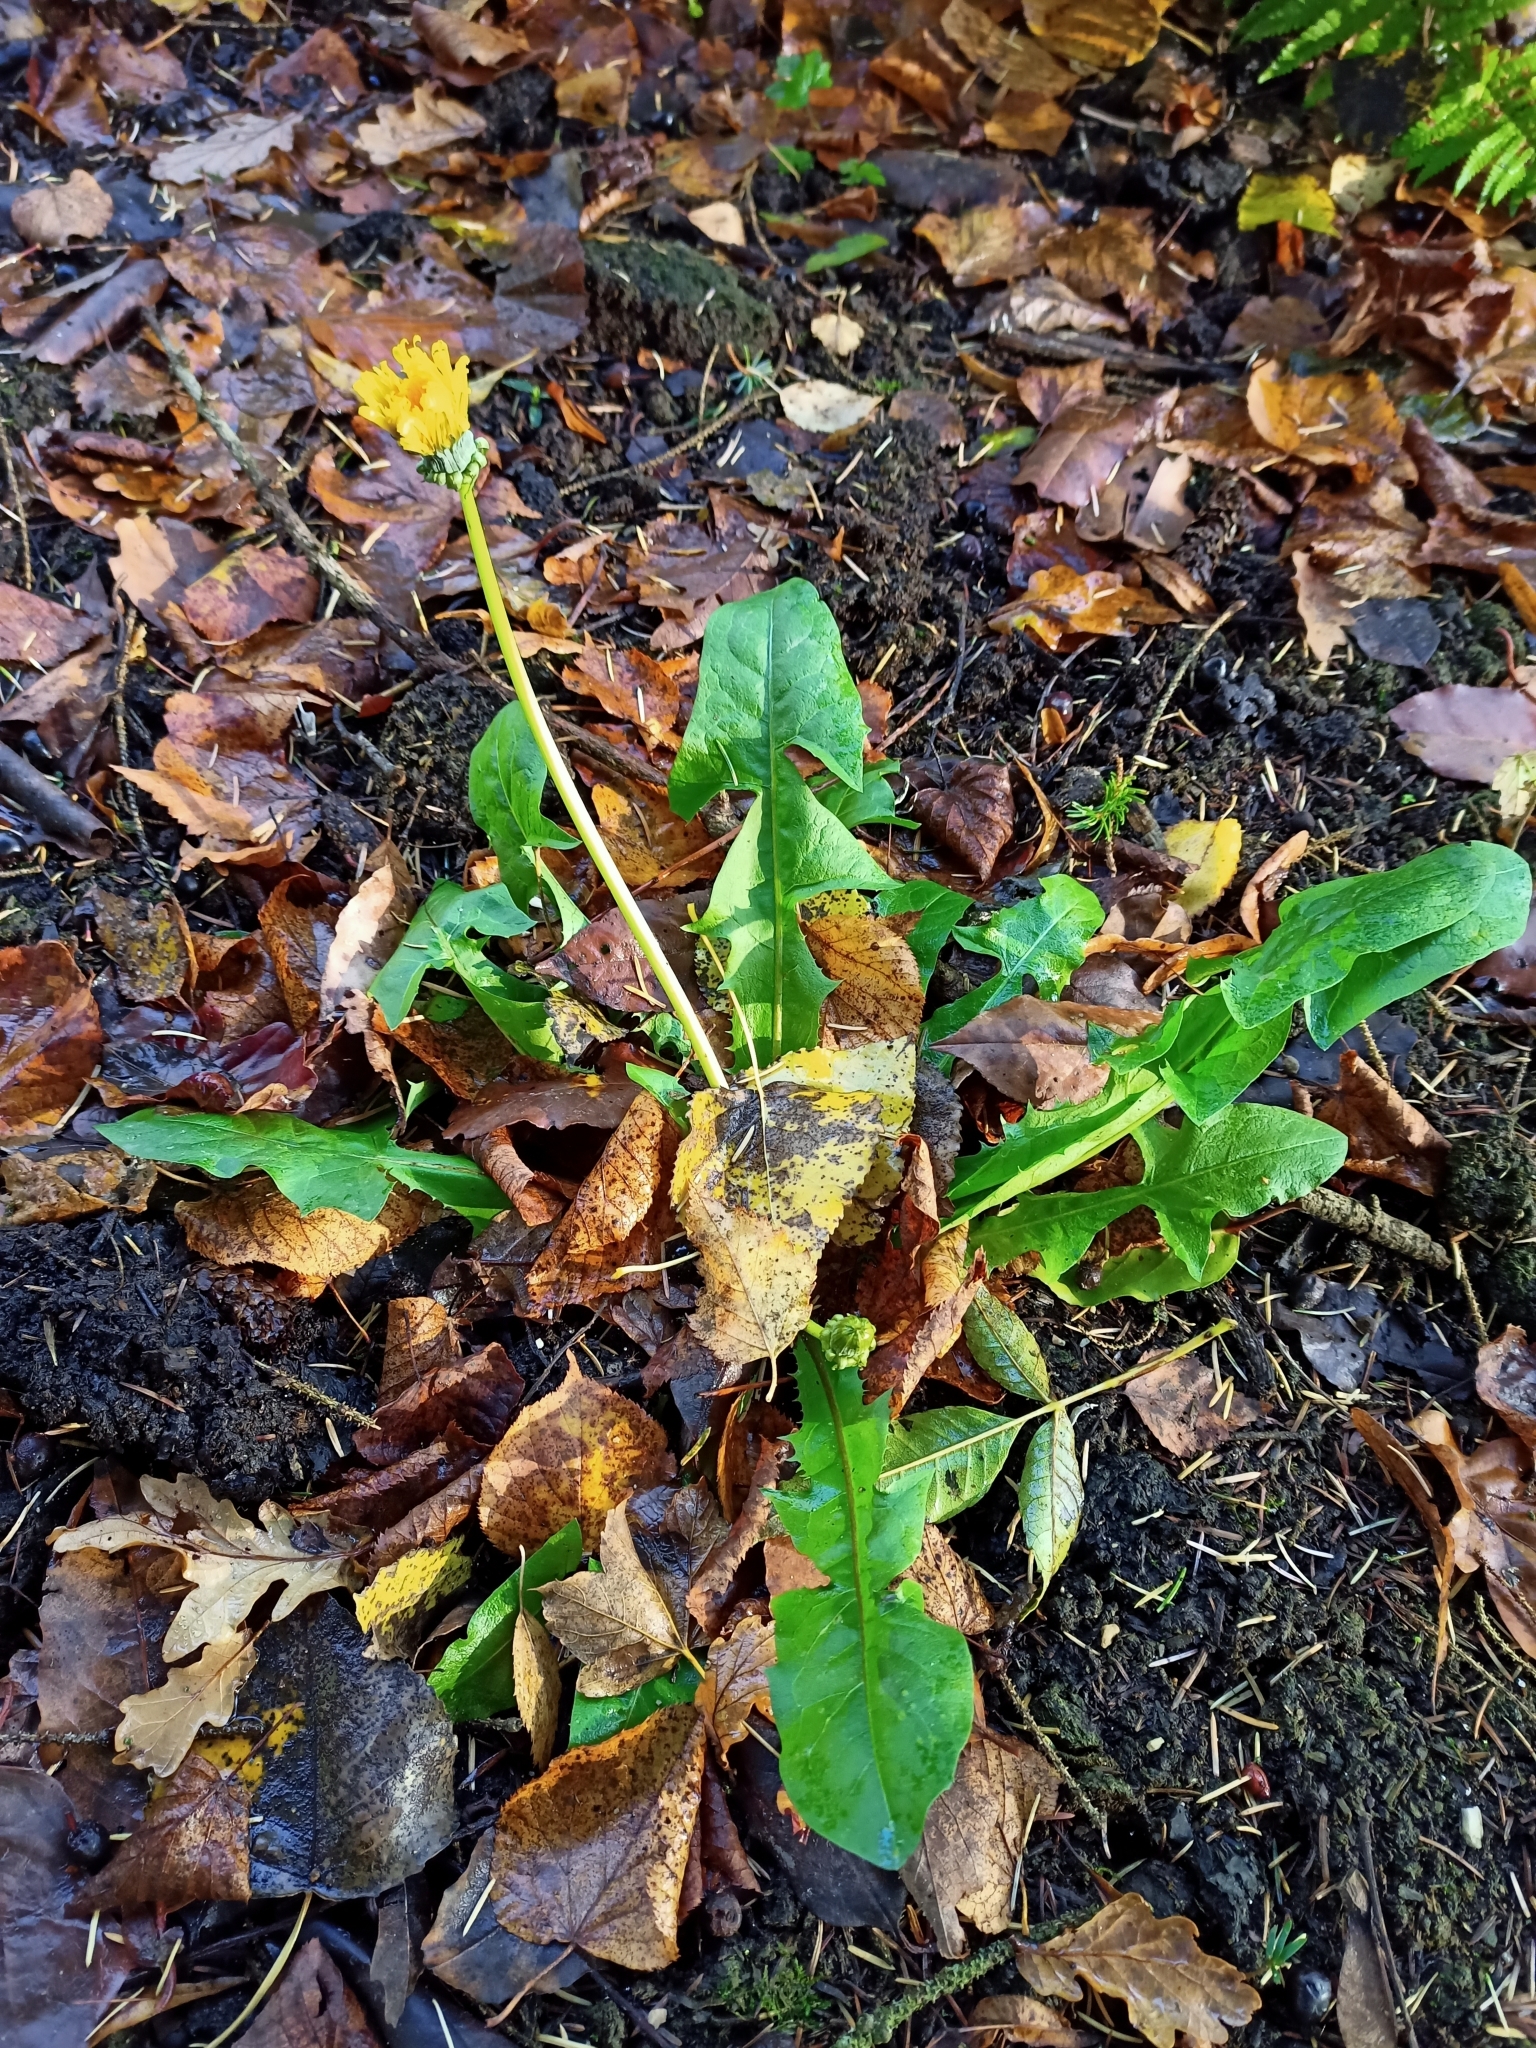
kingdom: Plantae
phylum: Tracheophyta
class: Magnoliopsida
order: Asterales
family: Asteraceae
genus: Taraxacum
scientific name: Taraxacum officinale
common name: Common dandelion
